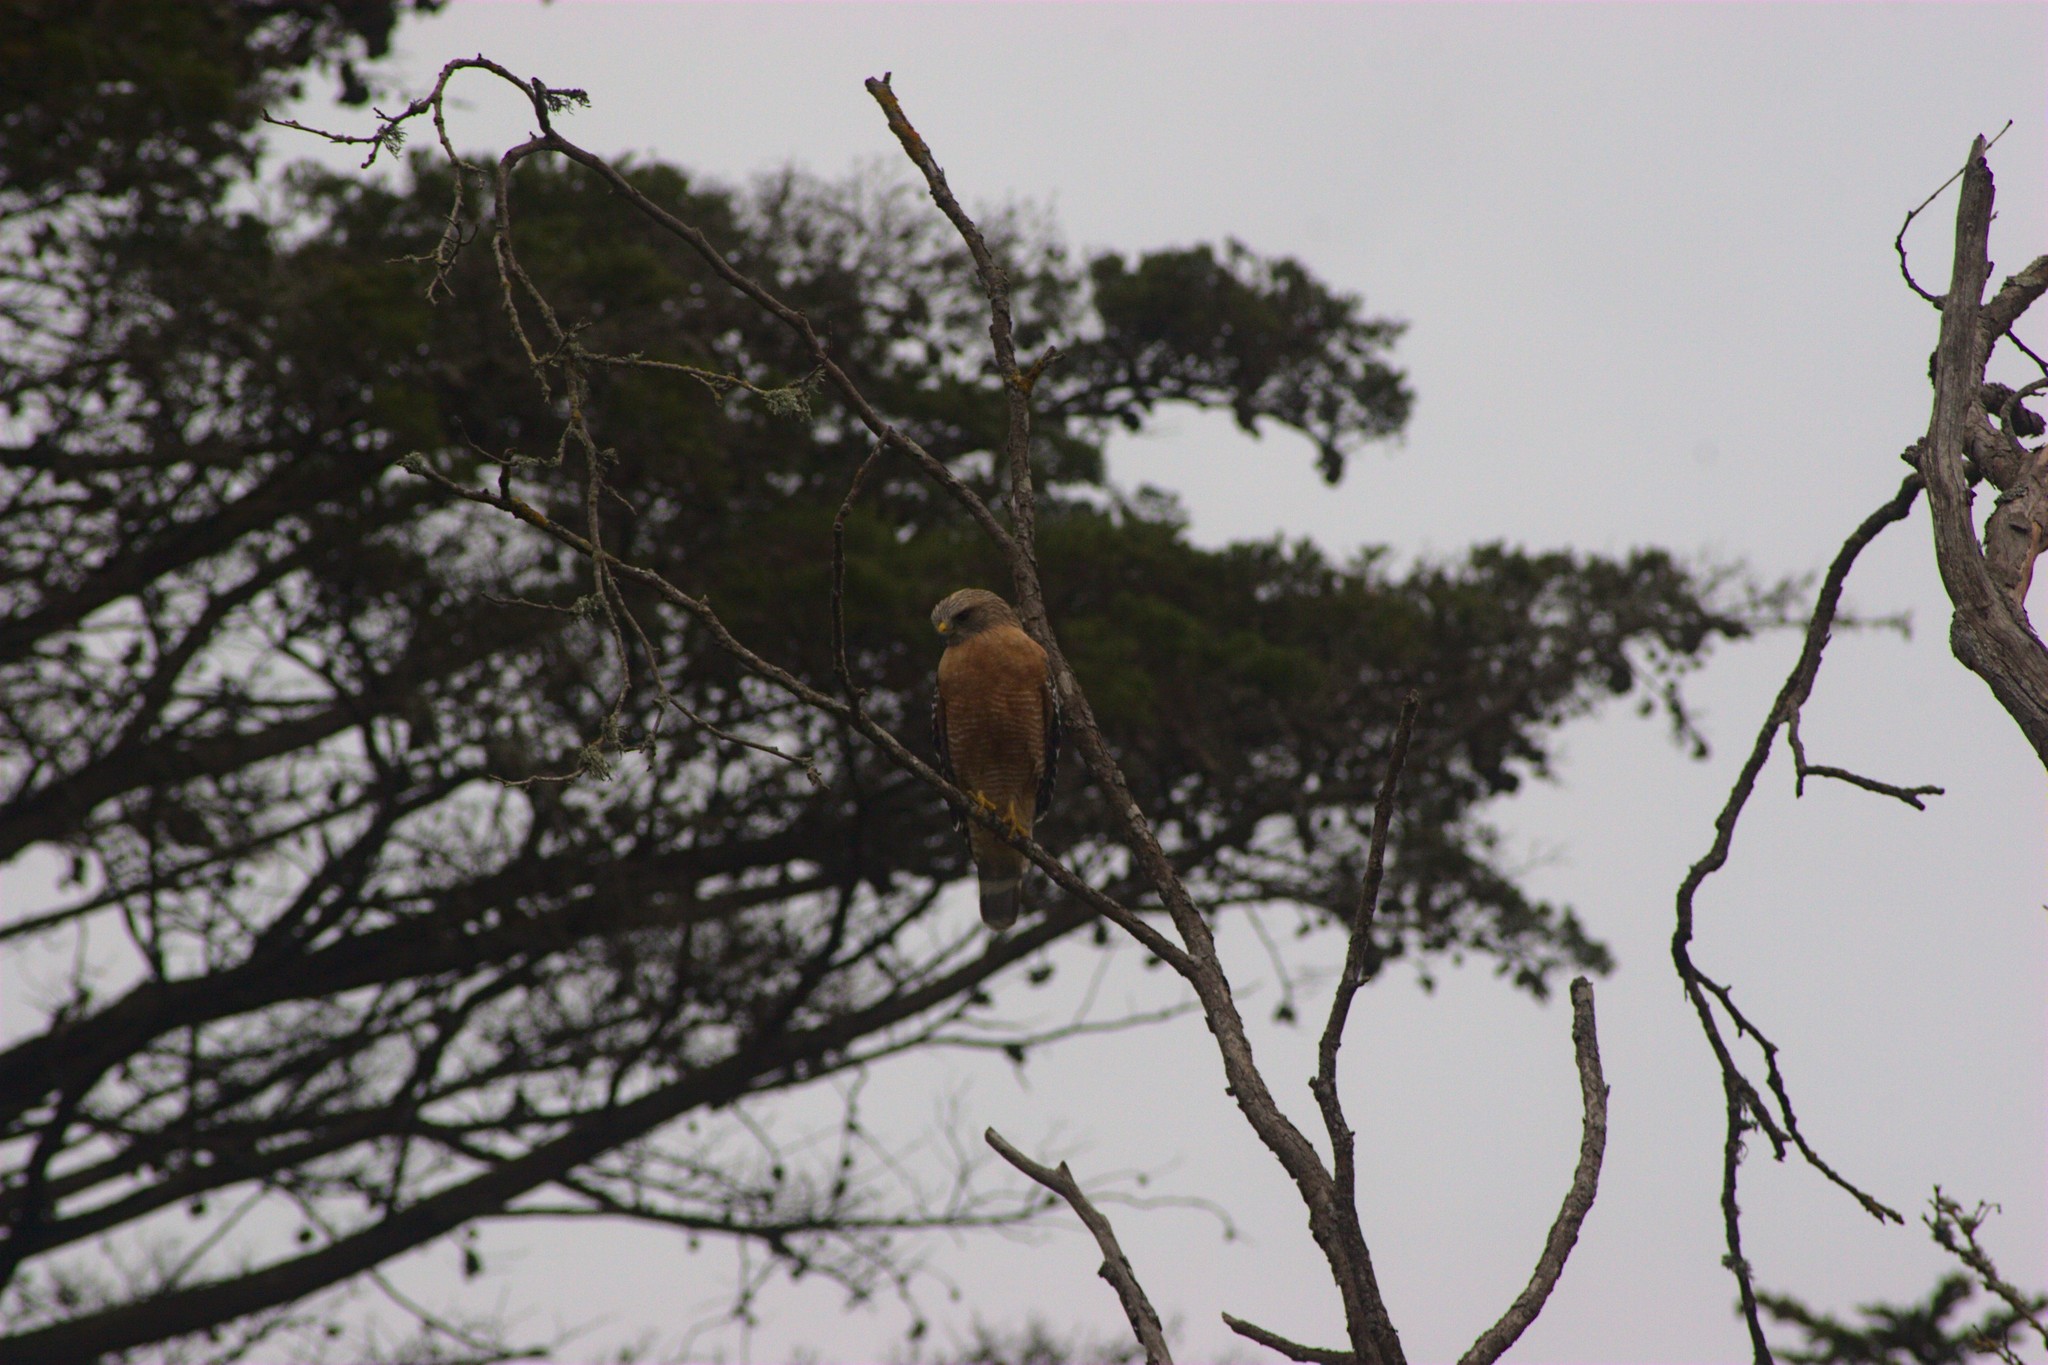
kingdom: Animalia
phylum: Chordata
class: Aves
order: Accipitriformes
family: Accipitridae
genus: Buteo
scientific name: Buteo lineatus
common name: Red-shouldered hawk
